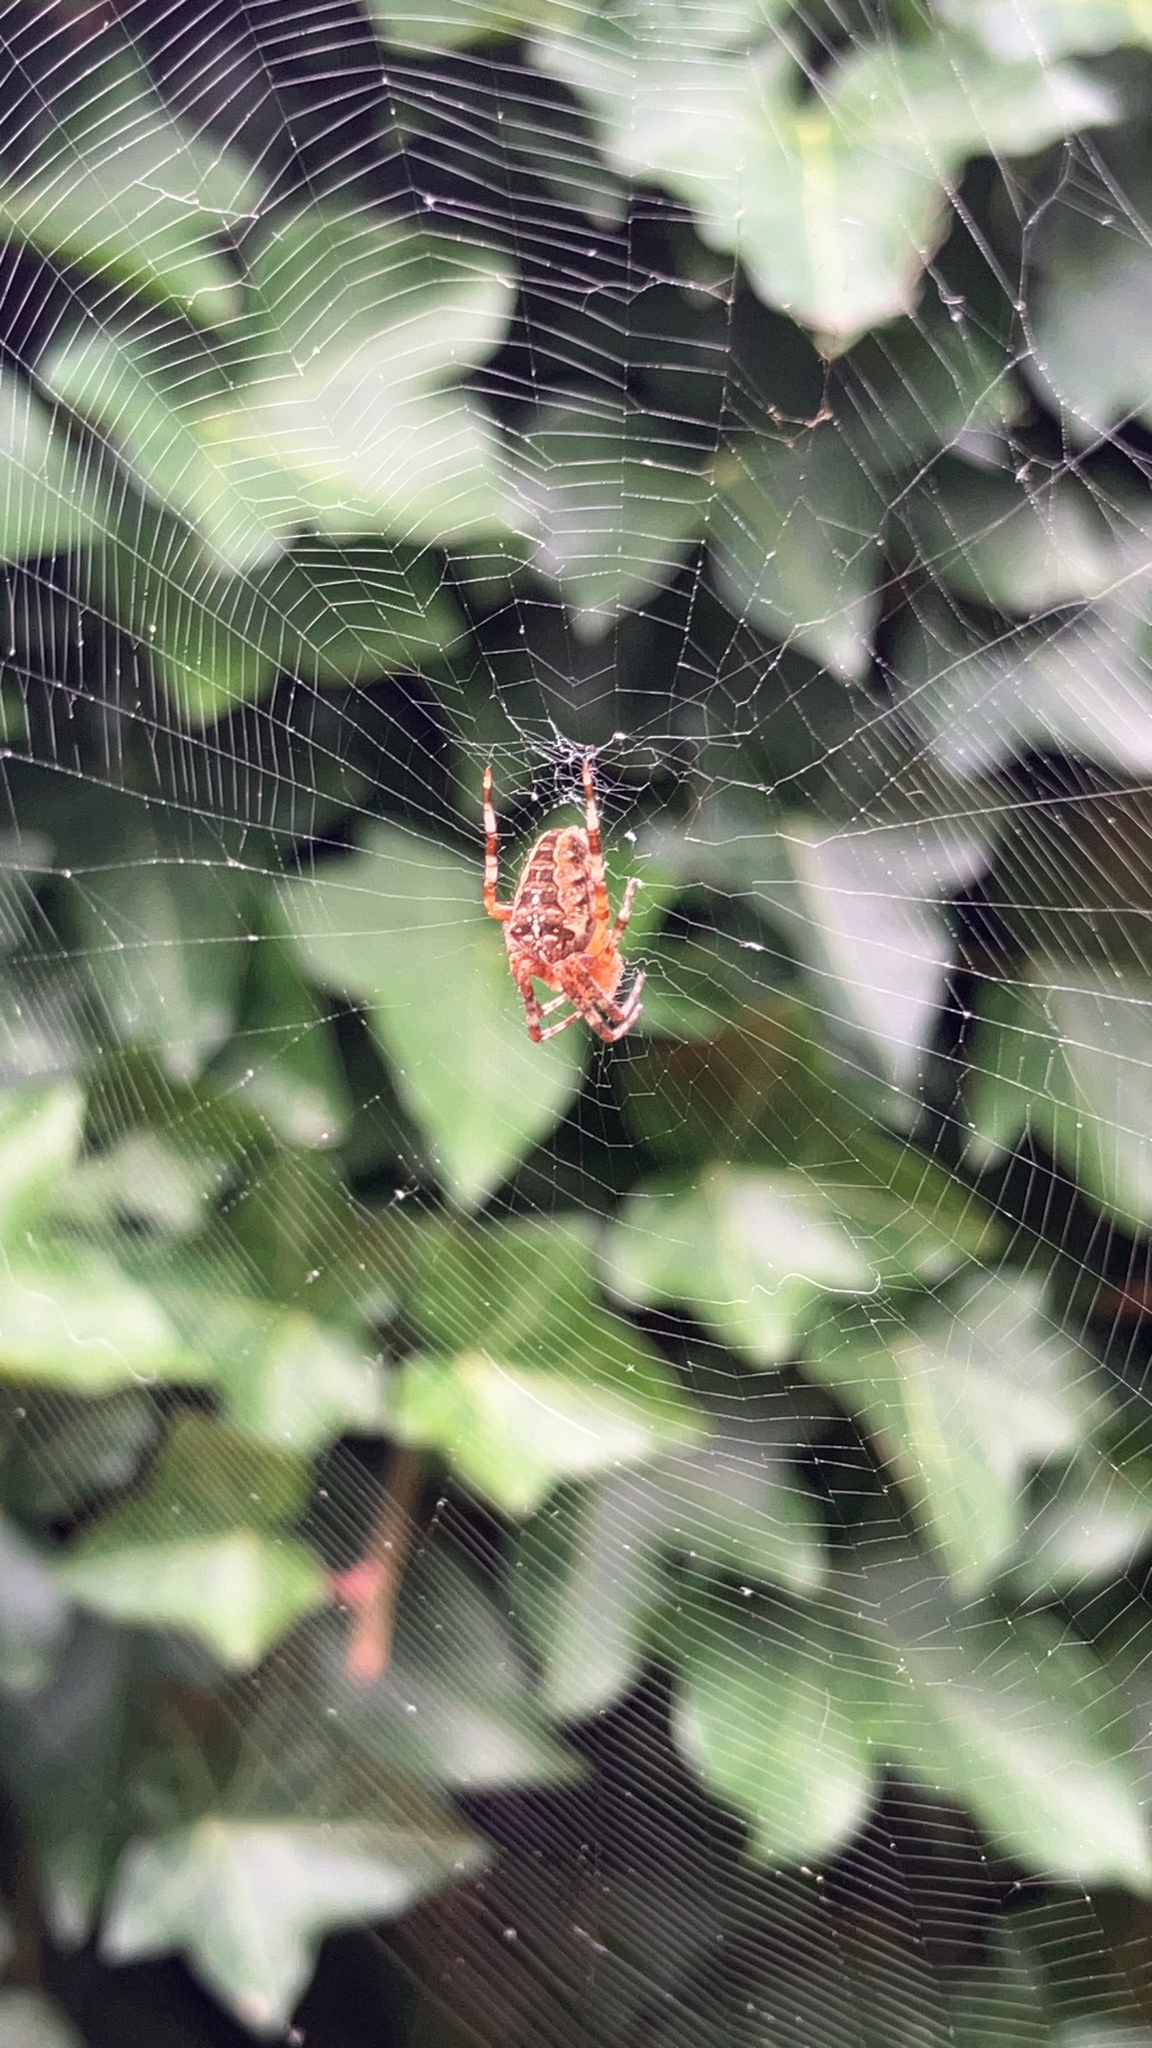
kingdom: Animalia
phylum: Arthropoda
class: Arachnida
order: Araneae
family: Araneidae
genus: Araneus
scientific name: Araneus diadematus
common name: Cross orbweaver
